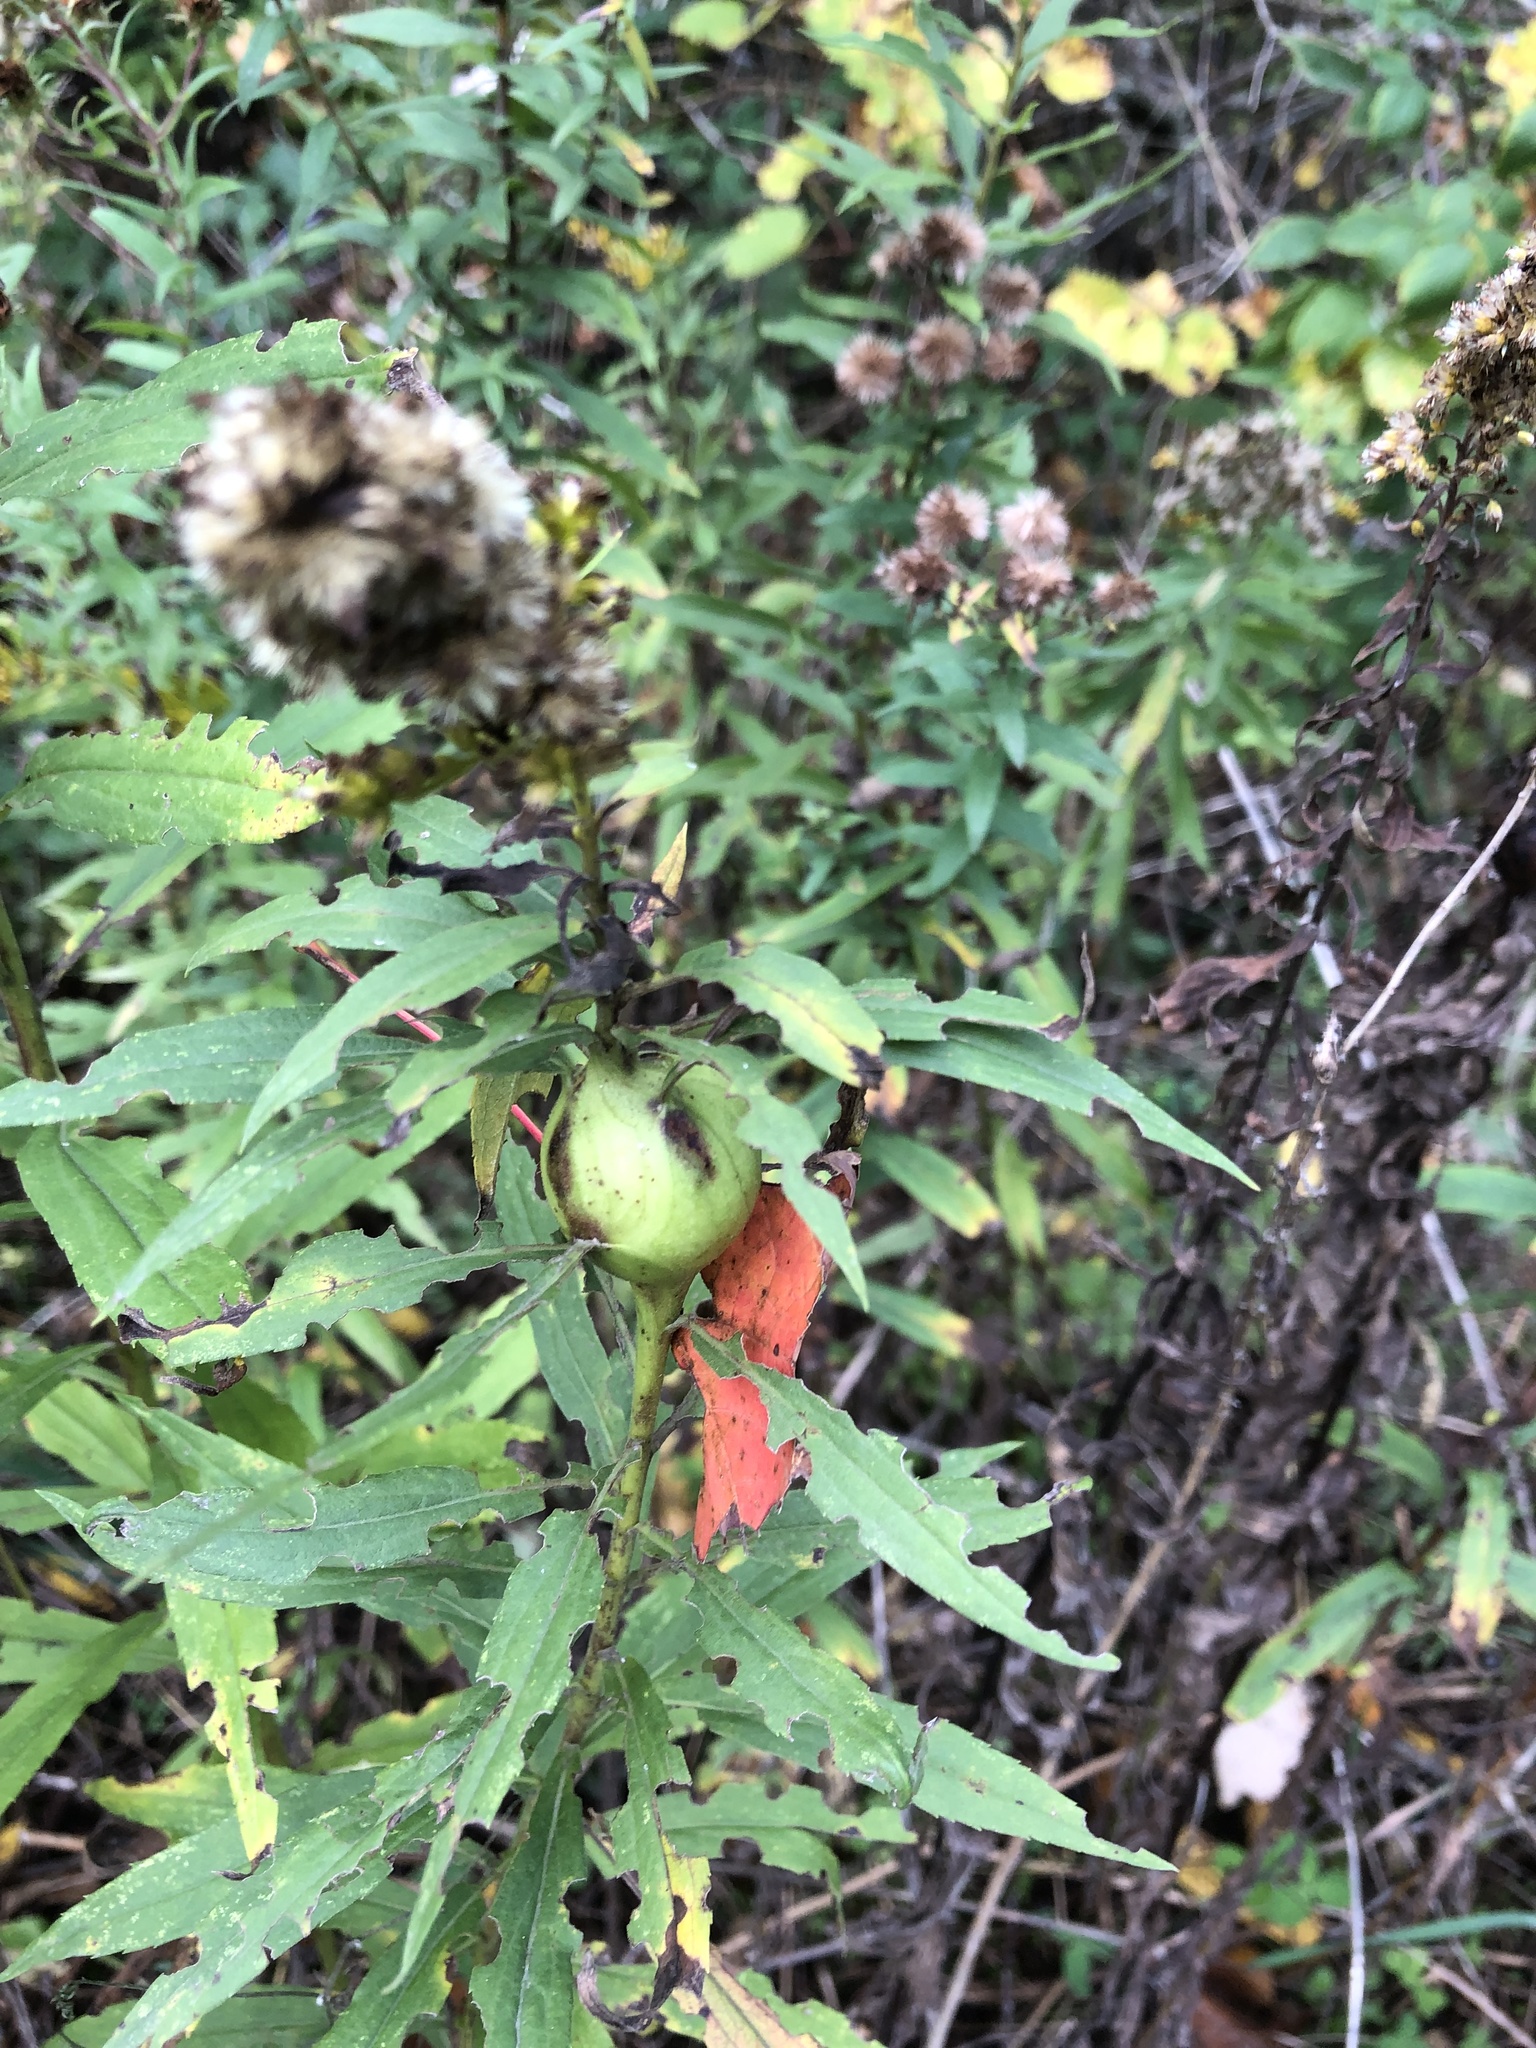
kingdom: Animalia
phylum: Arthropoda
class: Insecta
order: Diptera
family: Tephritidae
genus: Eurosta
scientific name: Eurosta solidaginis
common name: Goldenrod gall fly
